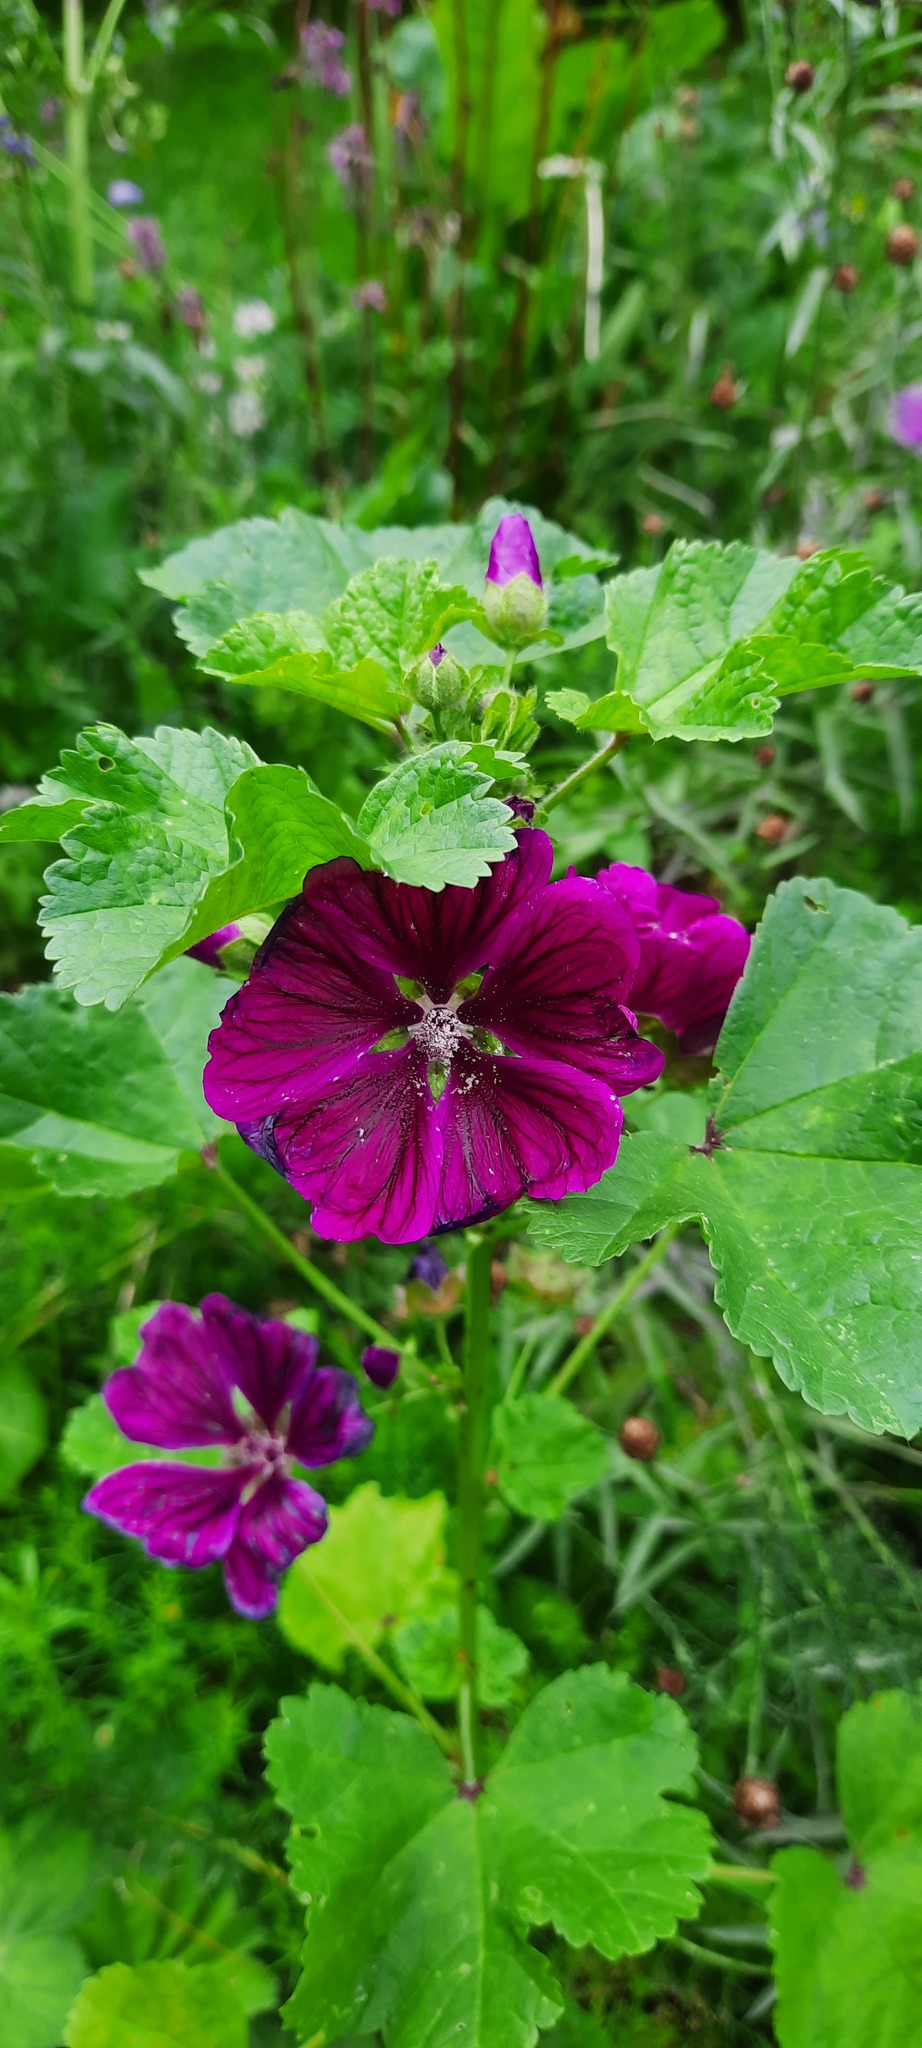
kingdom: Plantae
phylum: Tracheophyta
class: Magnoliopsida
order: Malvales
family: Malvaceae
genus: Malva
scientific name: Malva sylvestris
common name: Common mallow
